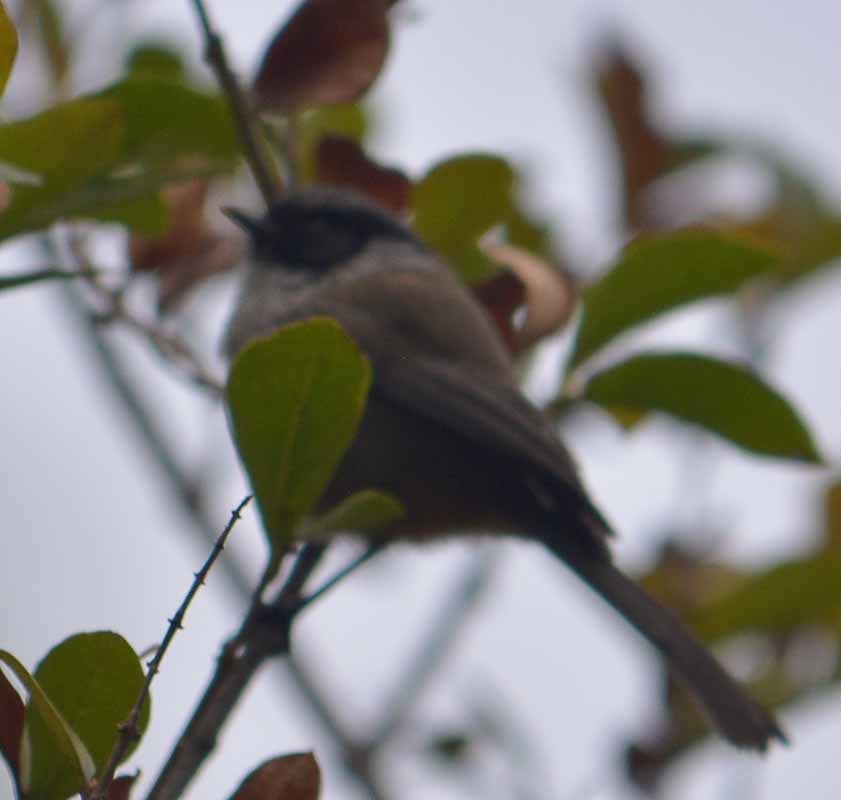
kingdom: Animalia
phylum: Chordata
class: Aves
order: Passeriformes
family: Aegithalidae
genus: Psaltriparus
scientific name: Psaltriparus minimus
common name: American bushtit
